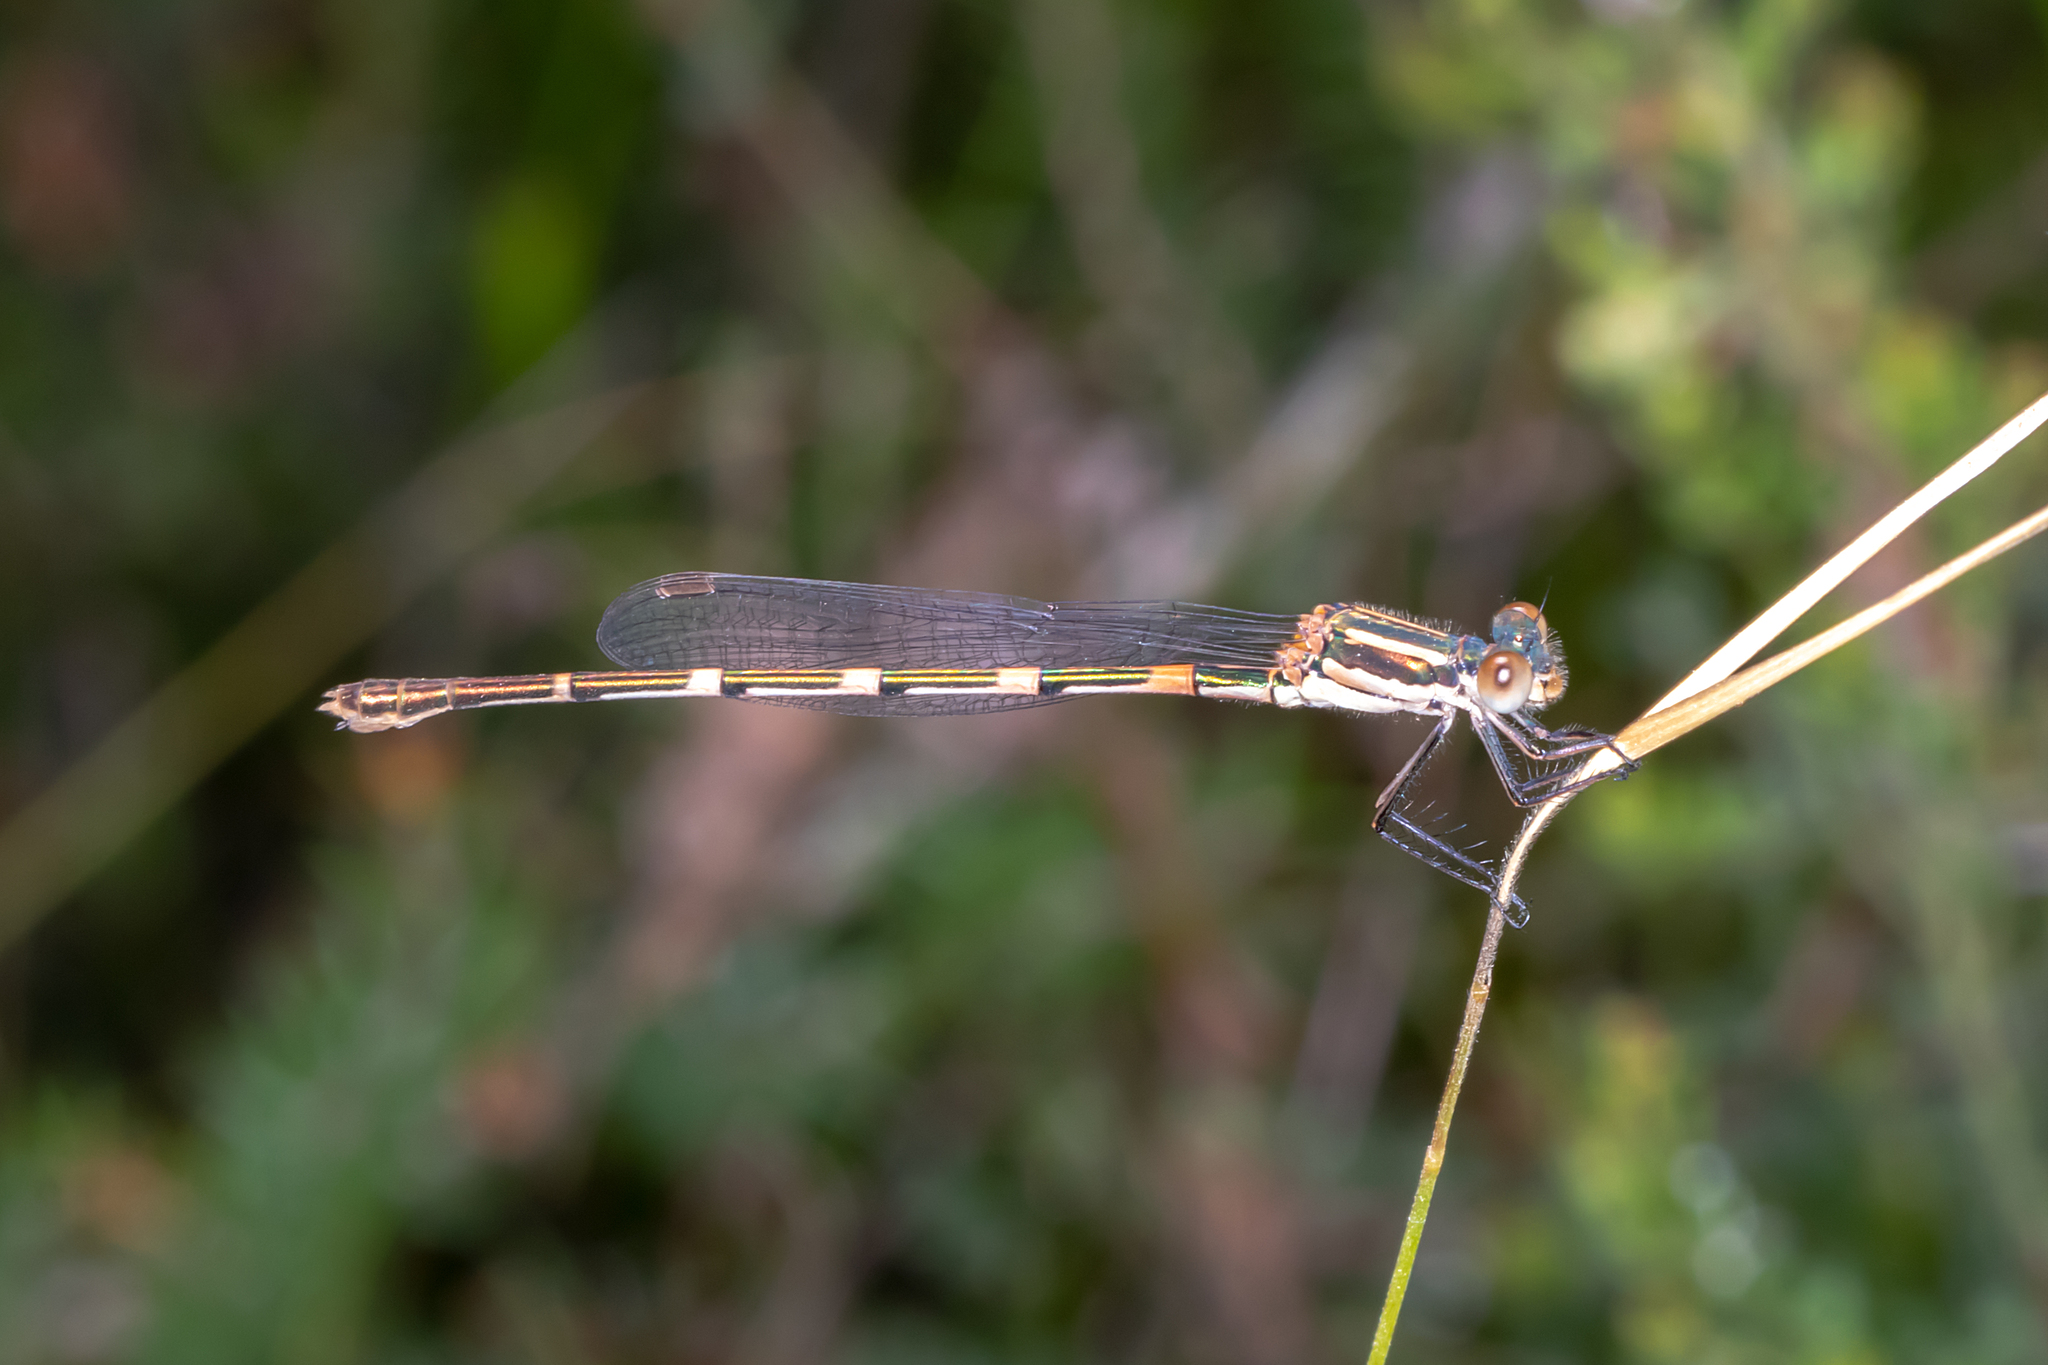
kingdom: Animalia
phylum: Arthropoda
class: Insecta
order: Odonata
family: Lestidae
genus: Austrolestes
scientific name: Austrolestes leda
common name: Wandering ringtail
